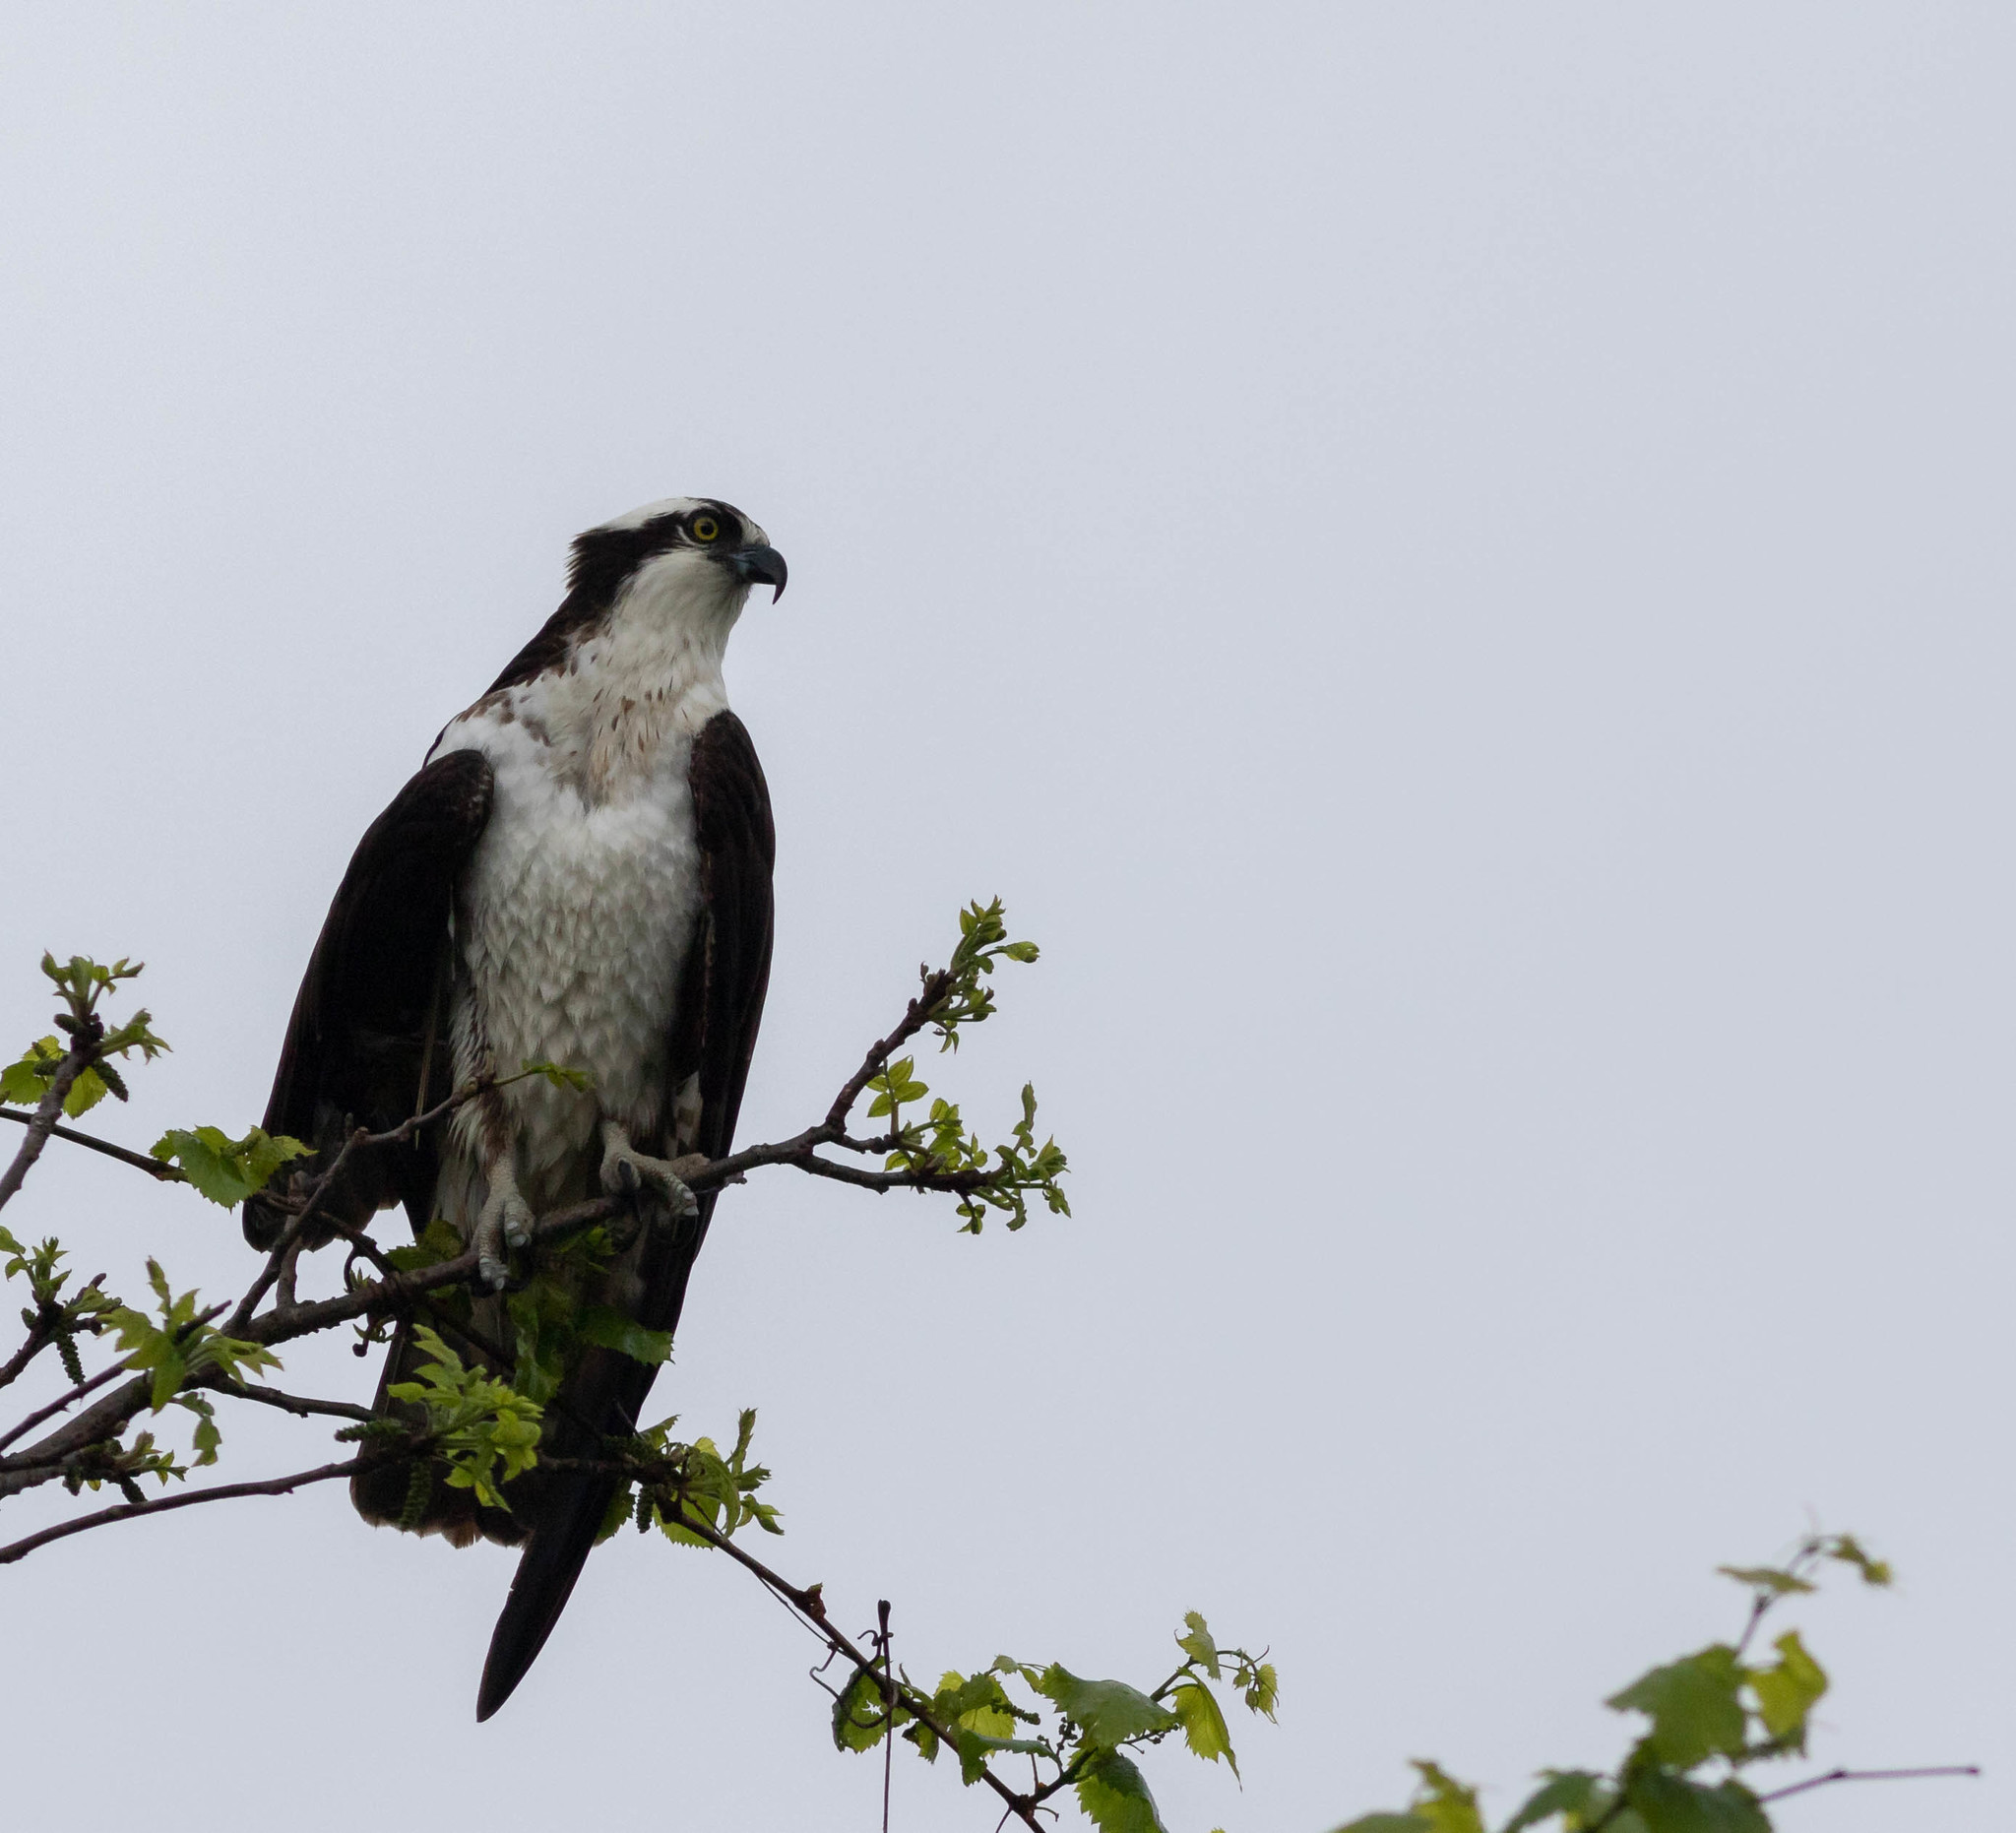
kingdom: Animalia
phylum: Chordata
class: Aves
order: Accipitriformes
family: Pandionidae
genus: Pandion
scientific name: Pandion haliaetus
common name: Osprey
